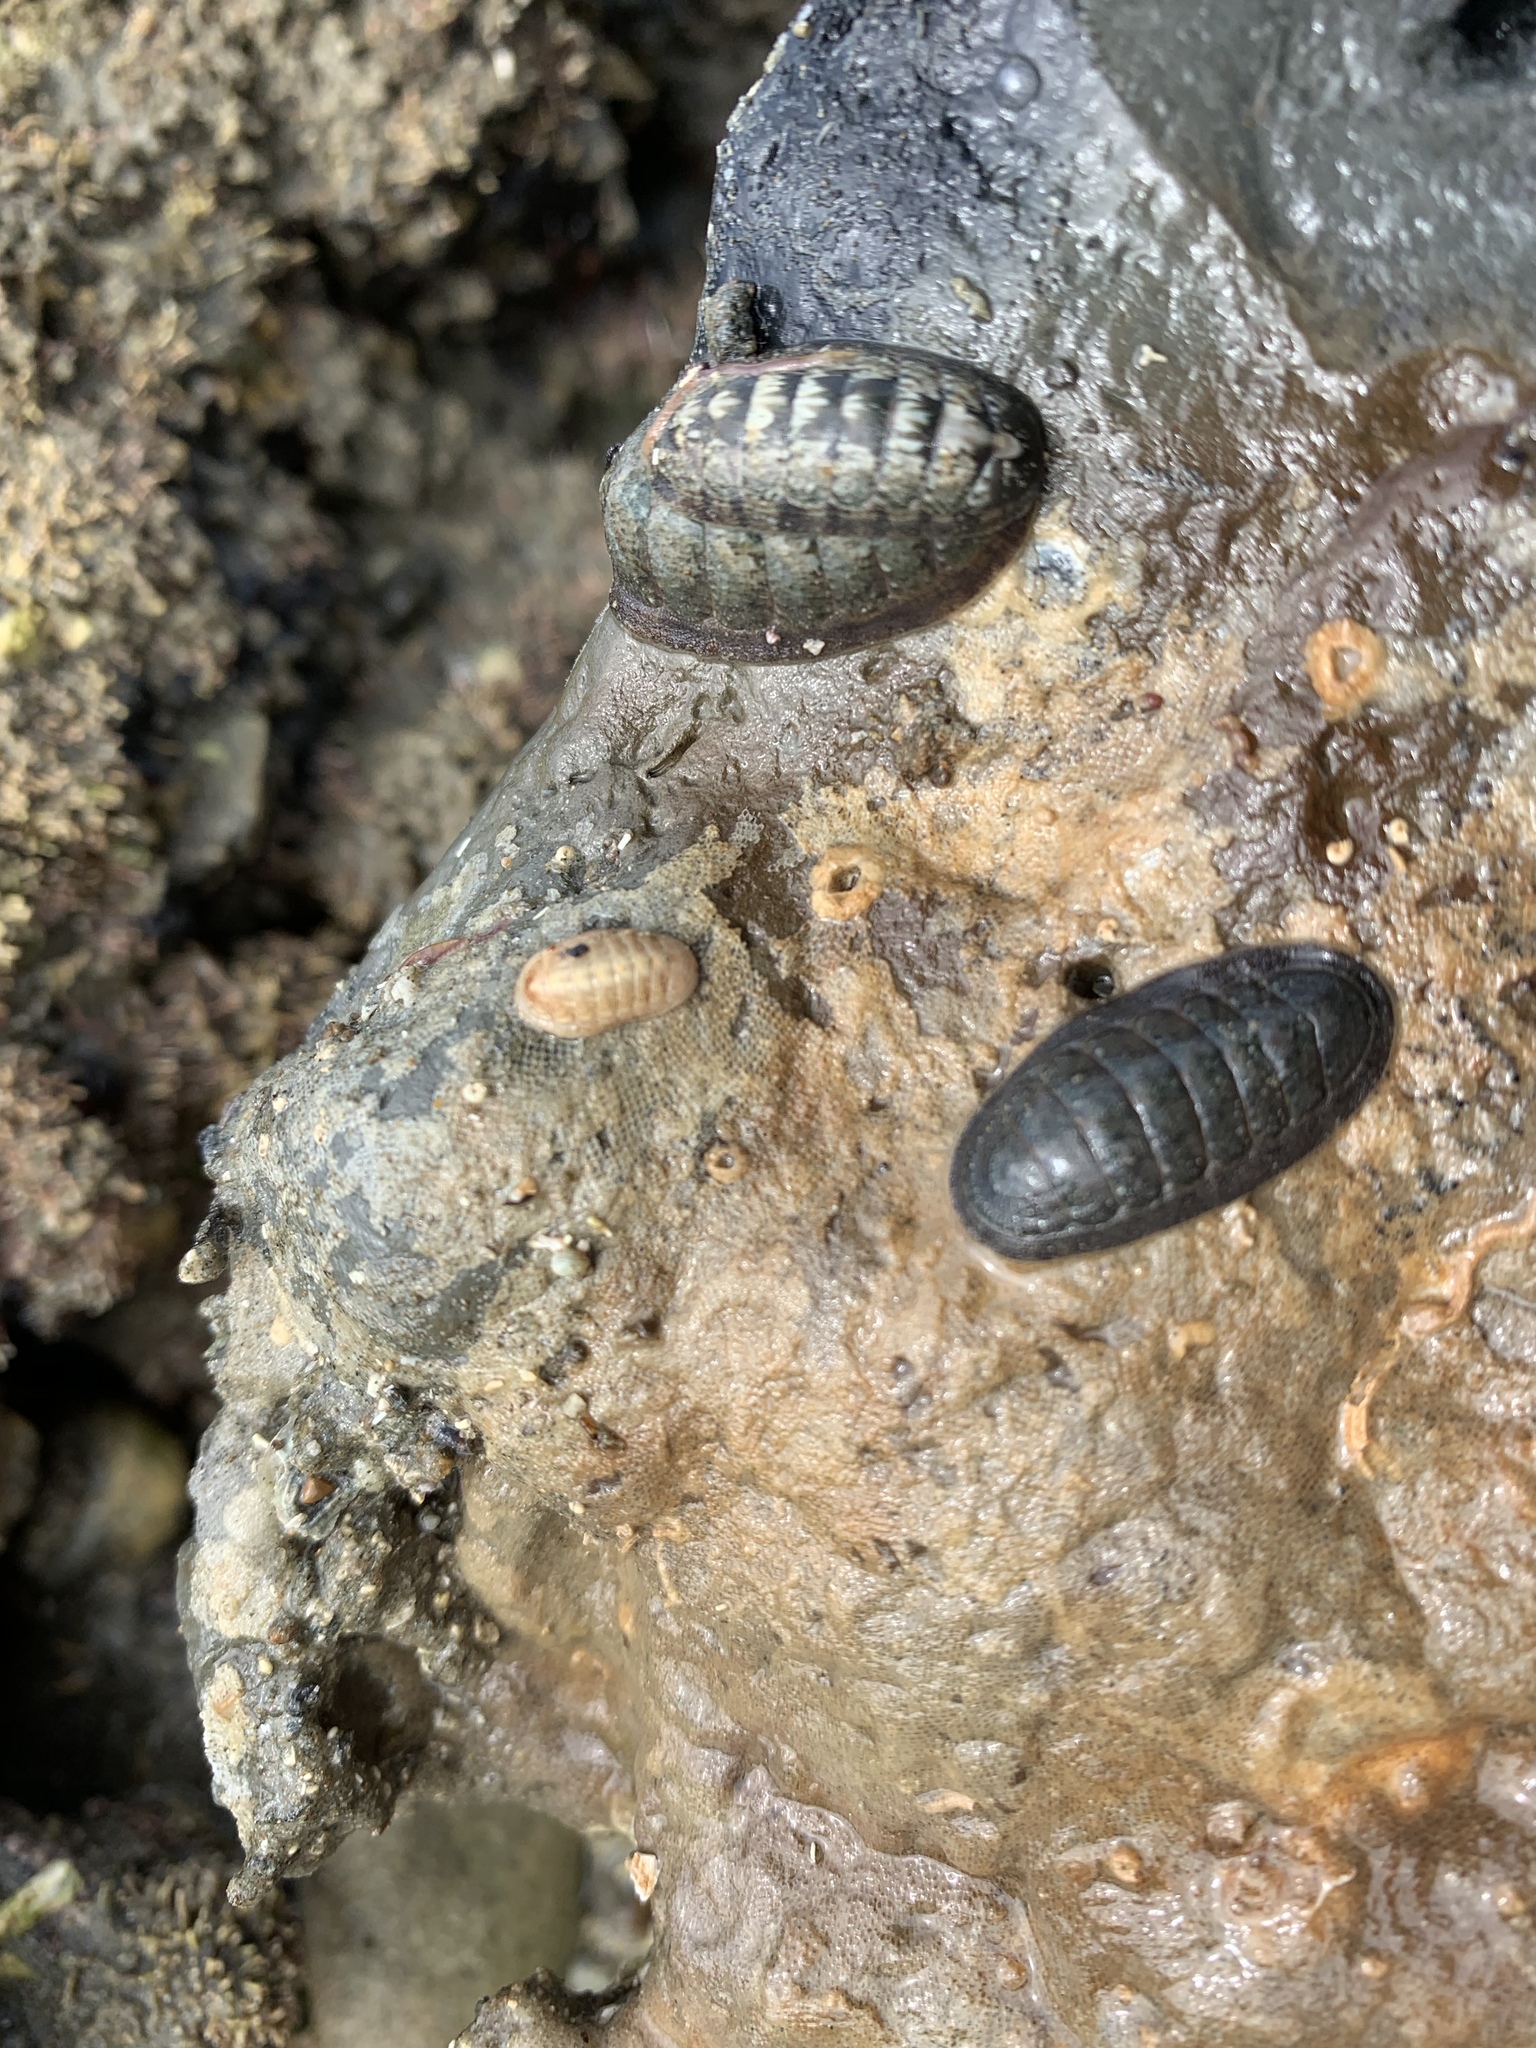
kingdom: Animalia
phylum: Mollusca
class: Polyplacophora
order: Lepidopleurida
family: Leptochitonidae
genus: Leptochiton
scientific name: Leptochiton inquinatus
